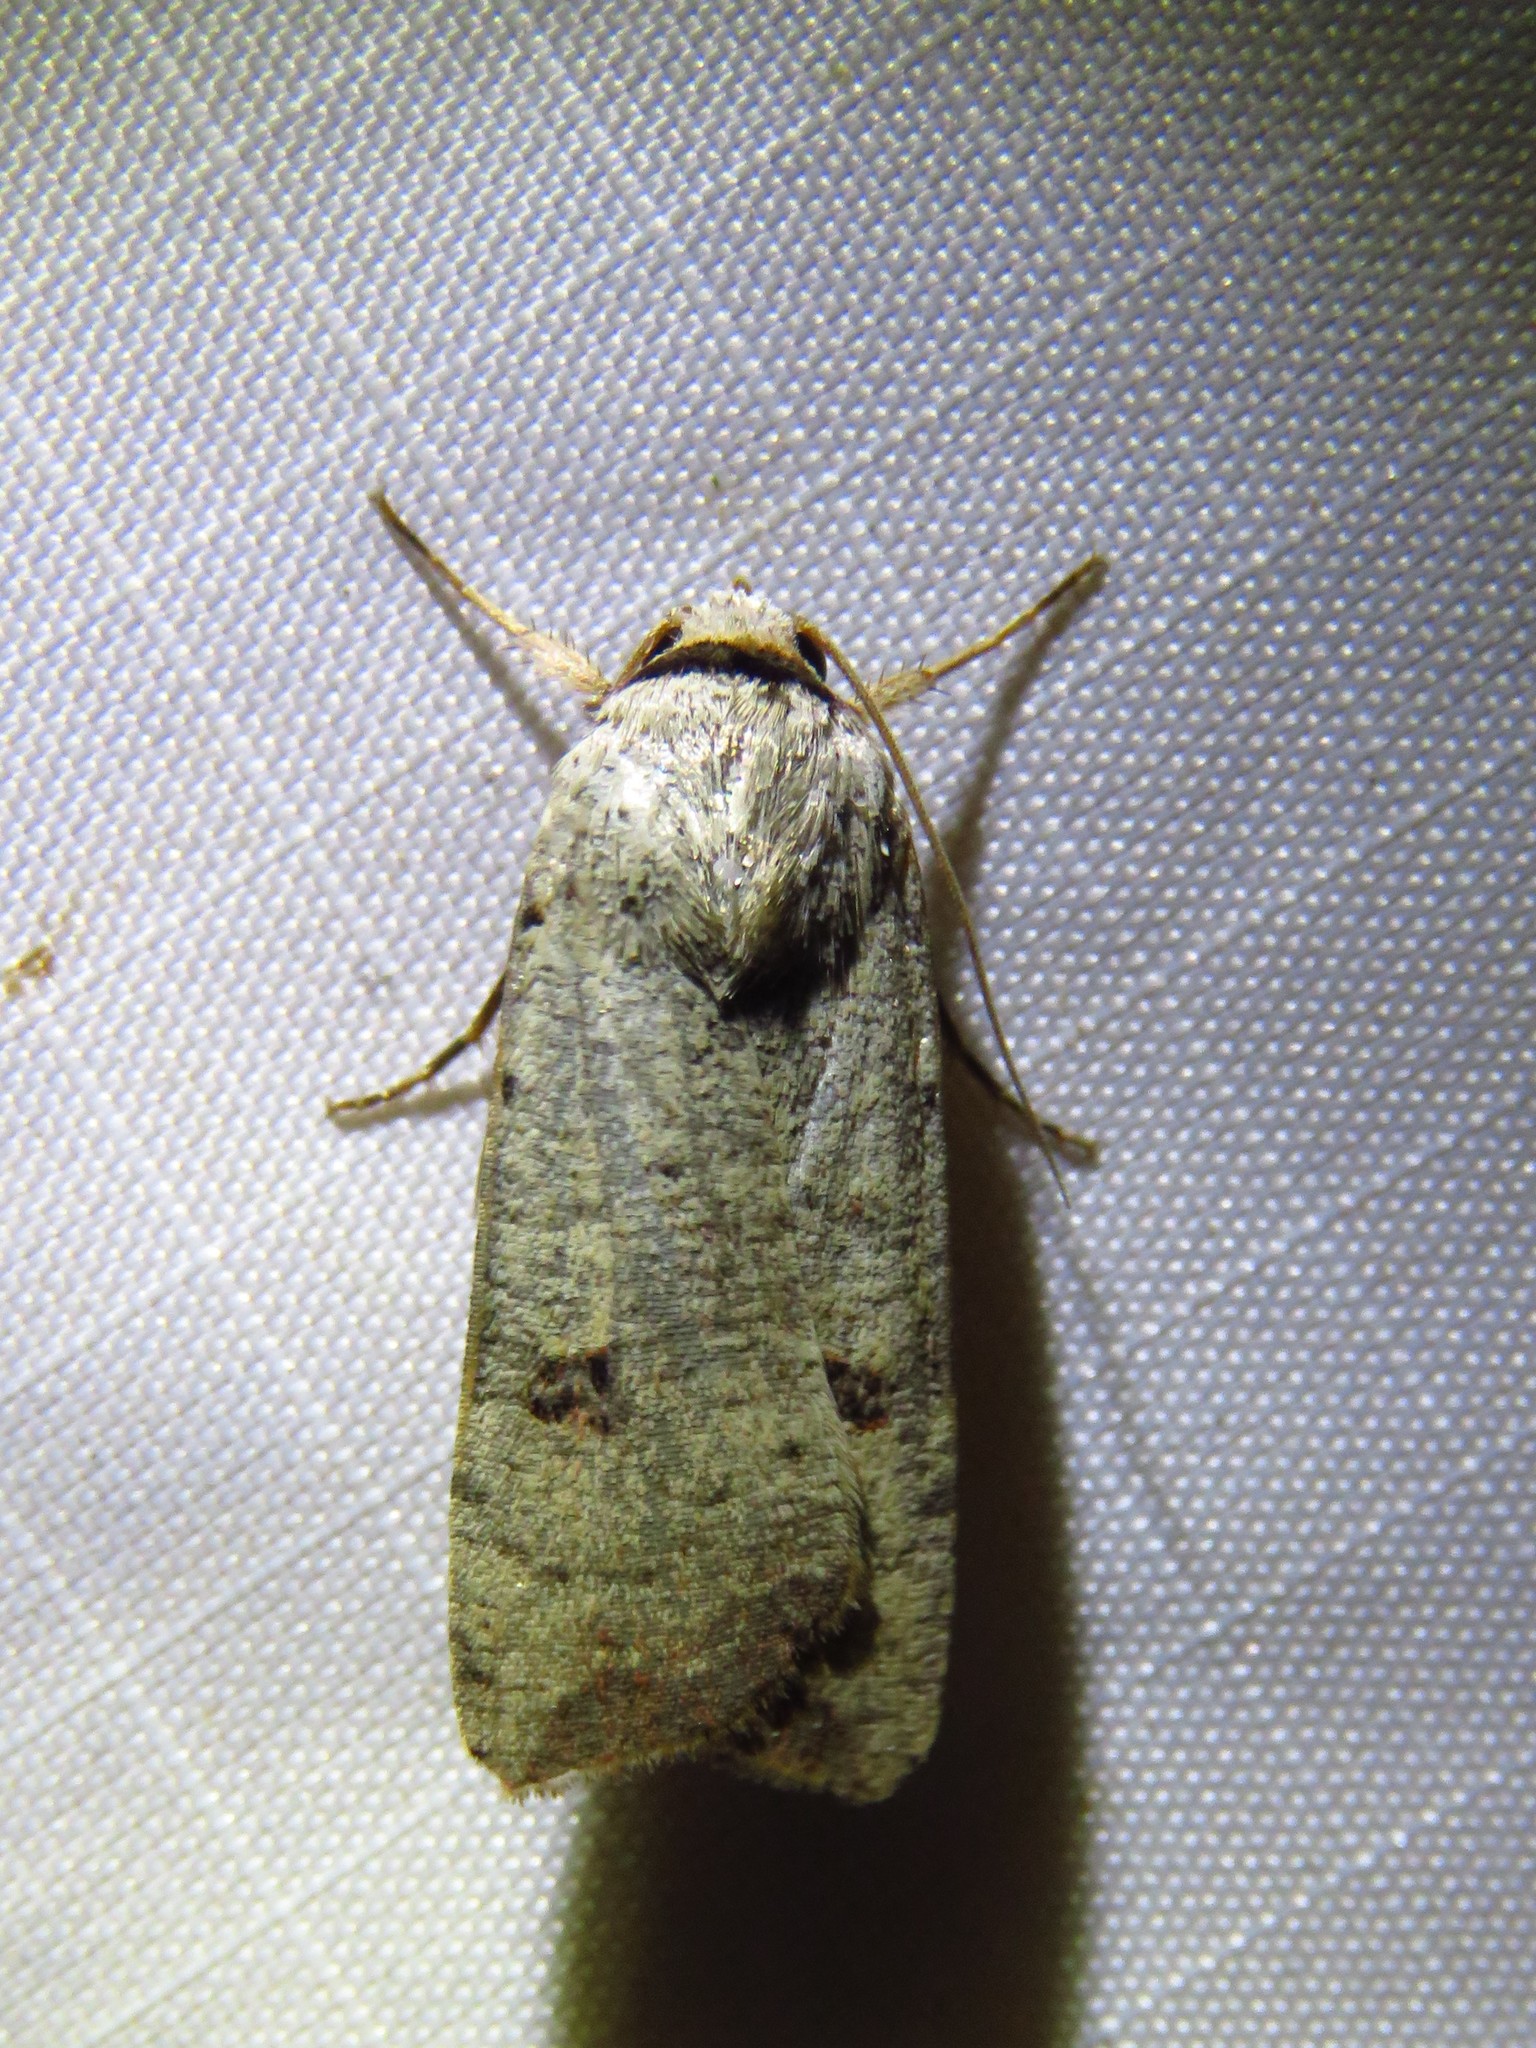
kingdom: Animalia
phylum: Arthropoda
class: Insecta
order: Lepidoptera
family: Noctuidae
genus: Anicla
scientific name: Anicla infecta
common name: Green cutworm
